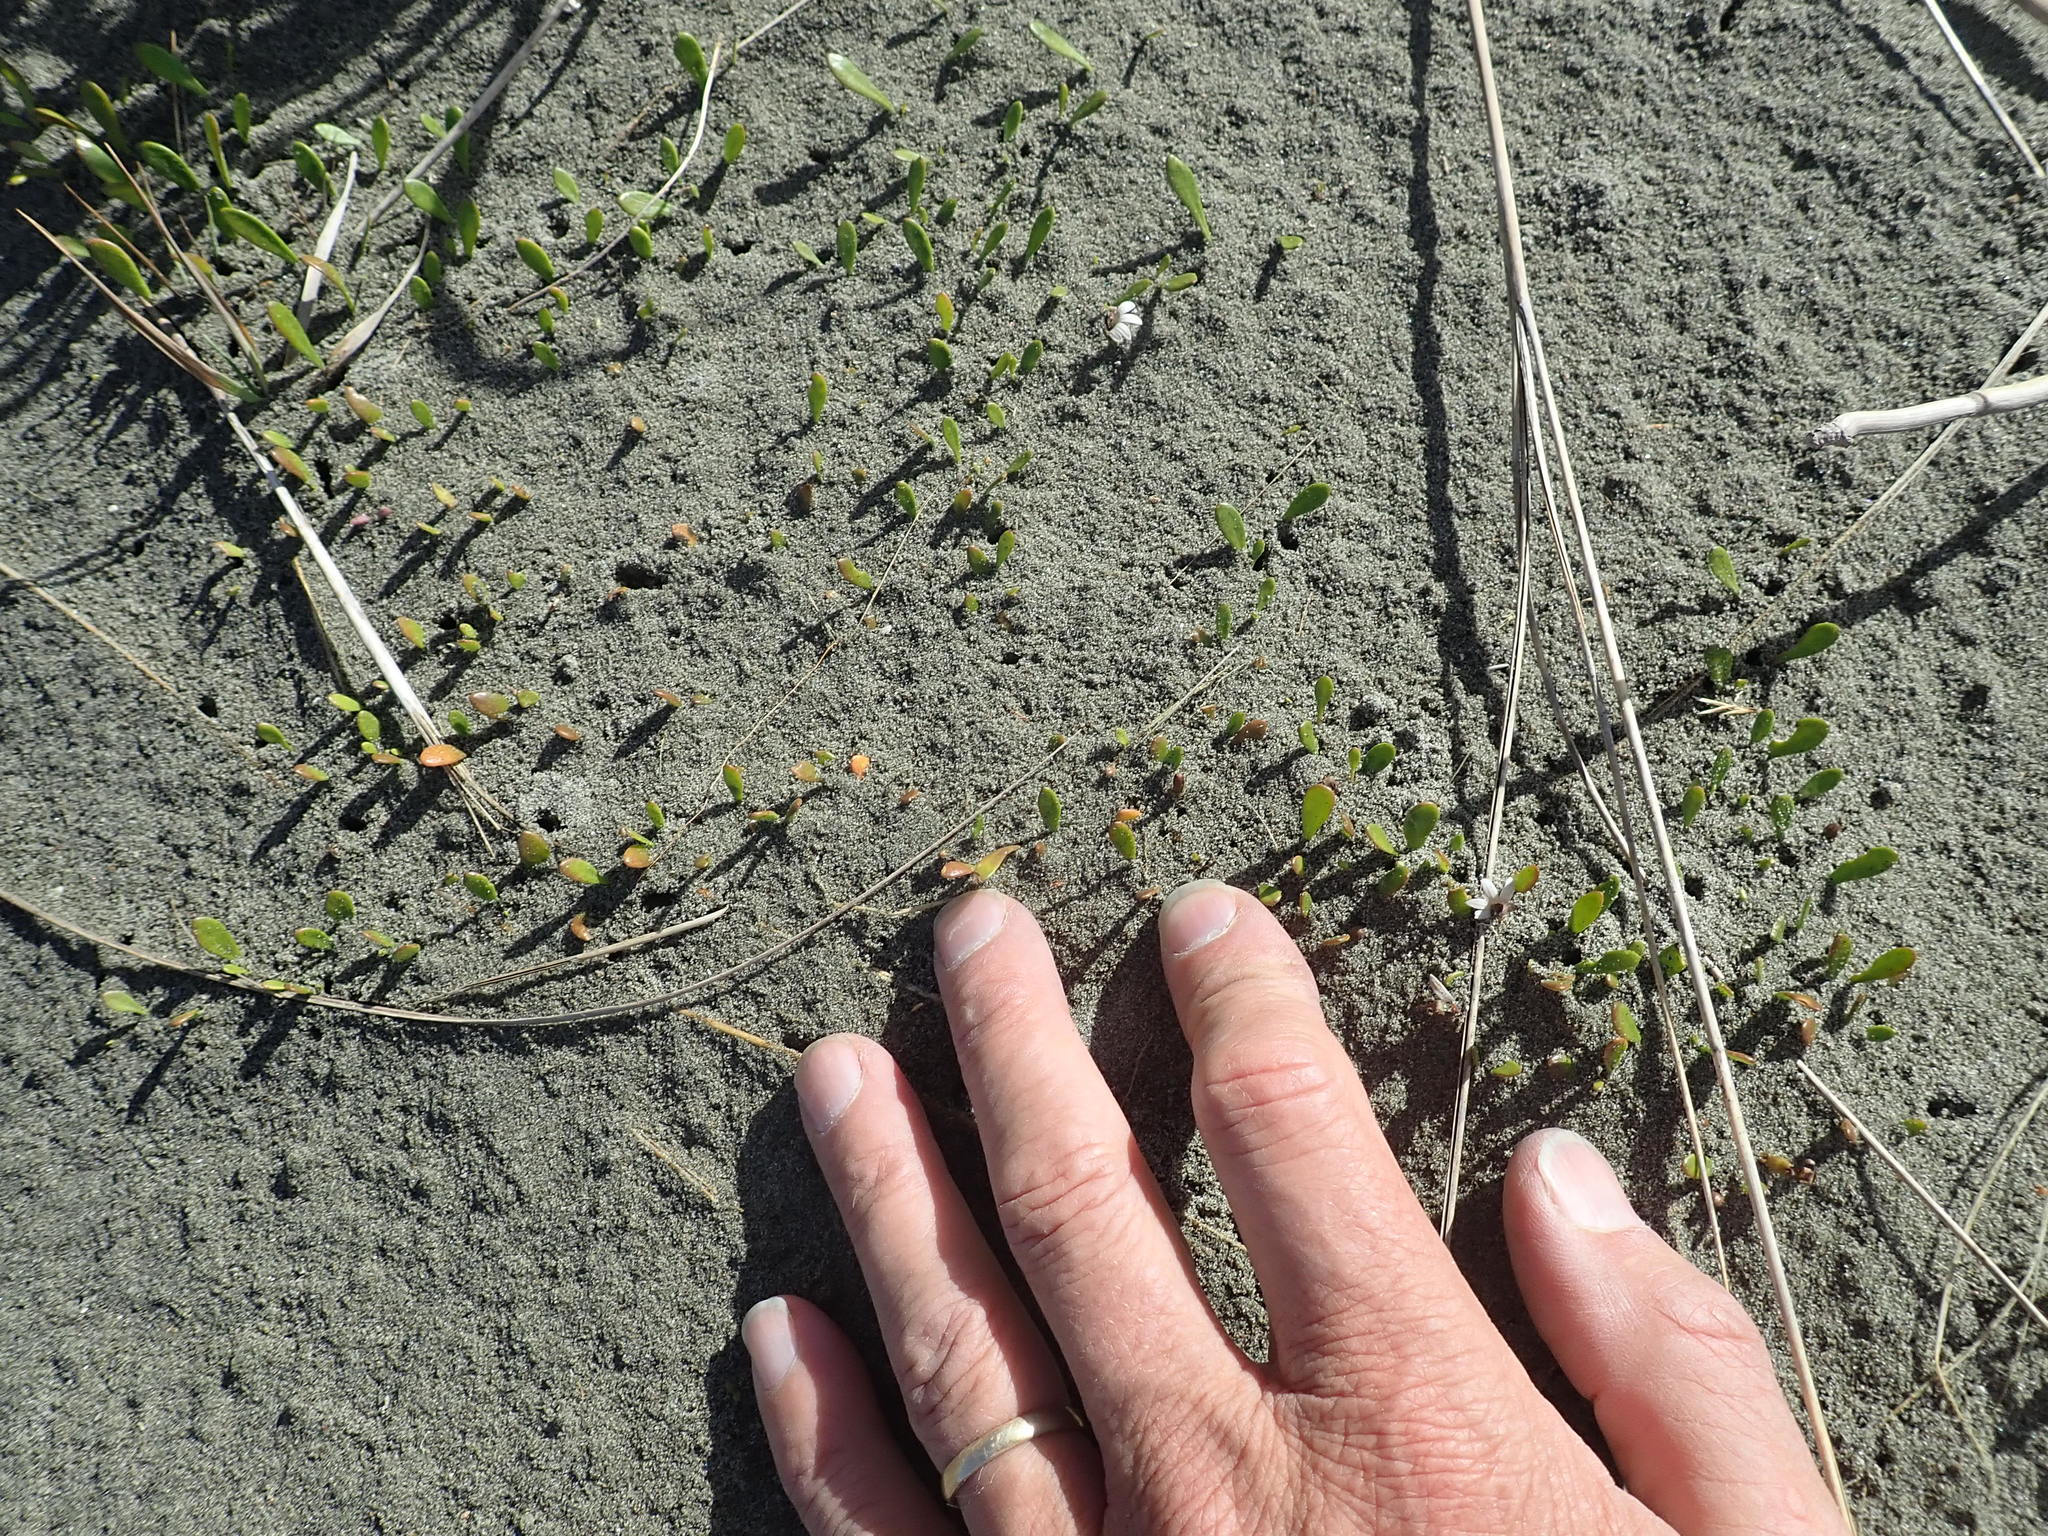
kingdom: Plantae
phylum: Tracheophyta
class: Magnoliopsida
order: Asterales
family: Goodeniaceae
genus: Goodenia
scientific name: Goodenia radicans
